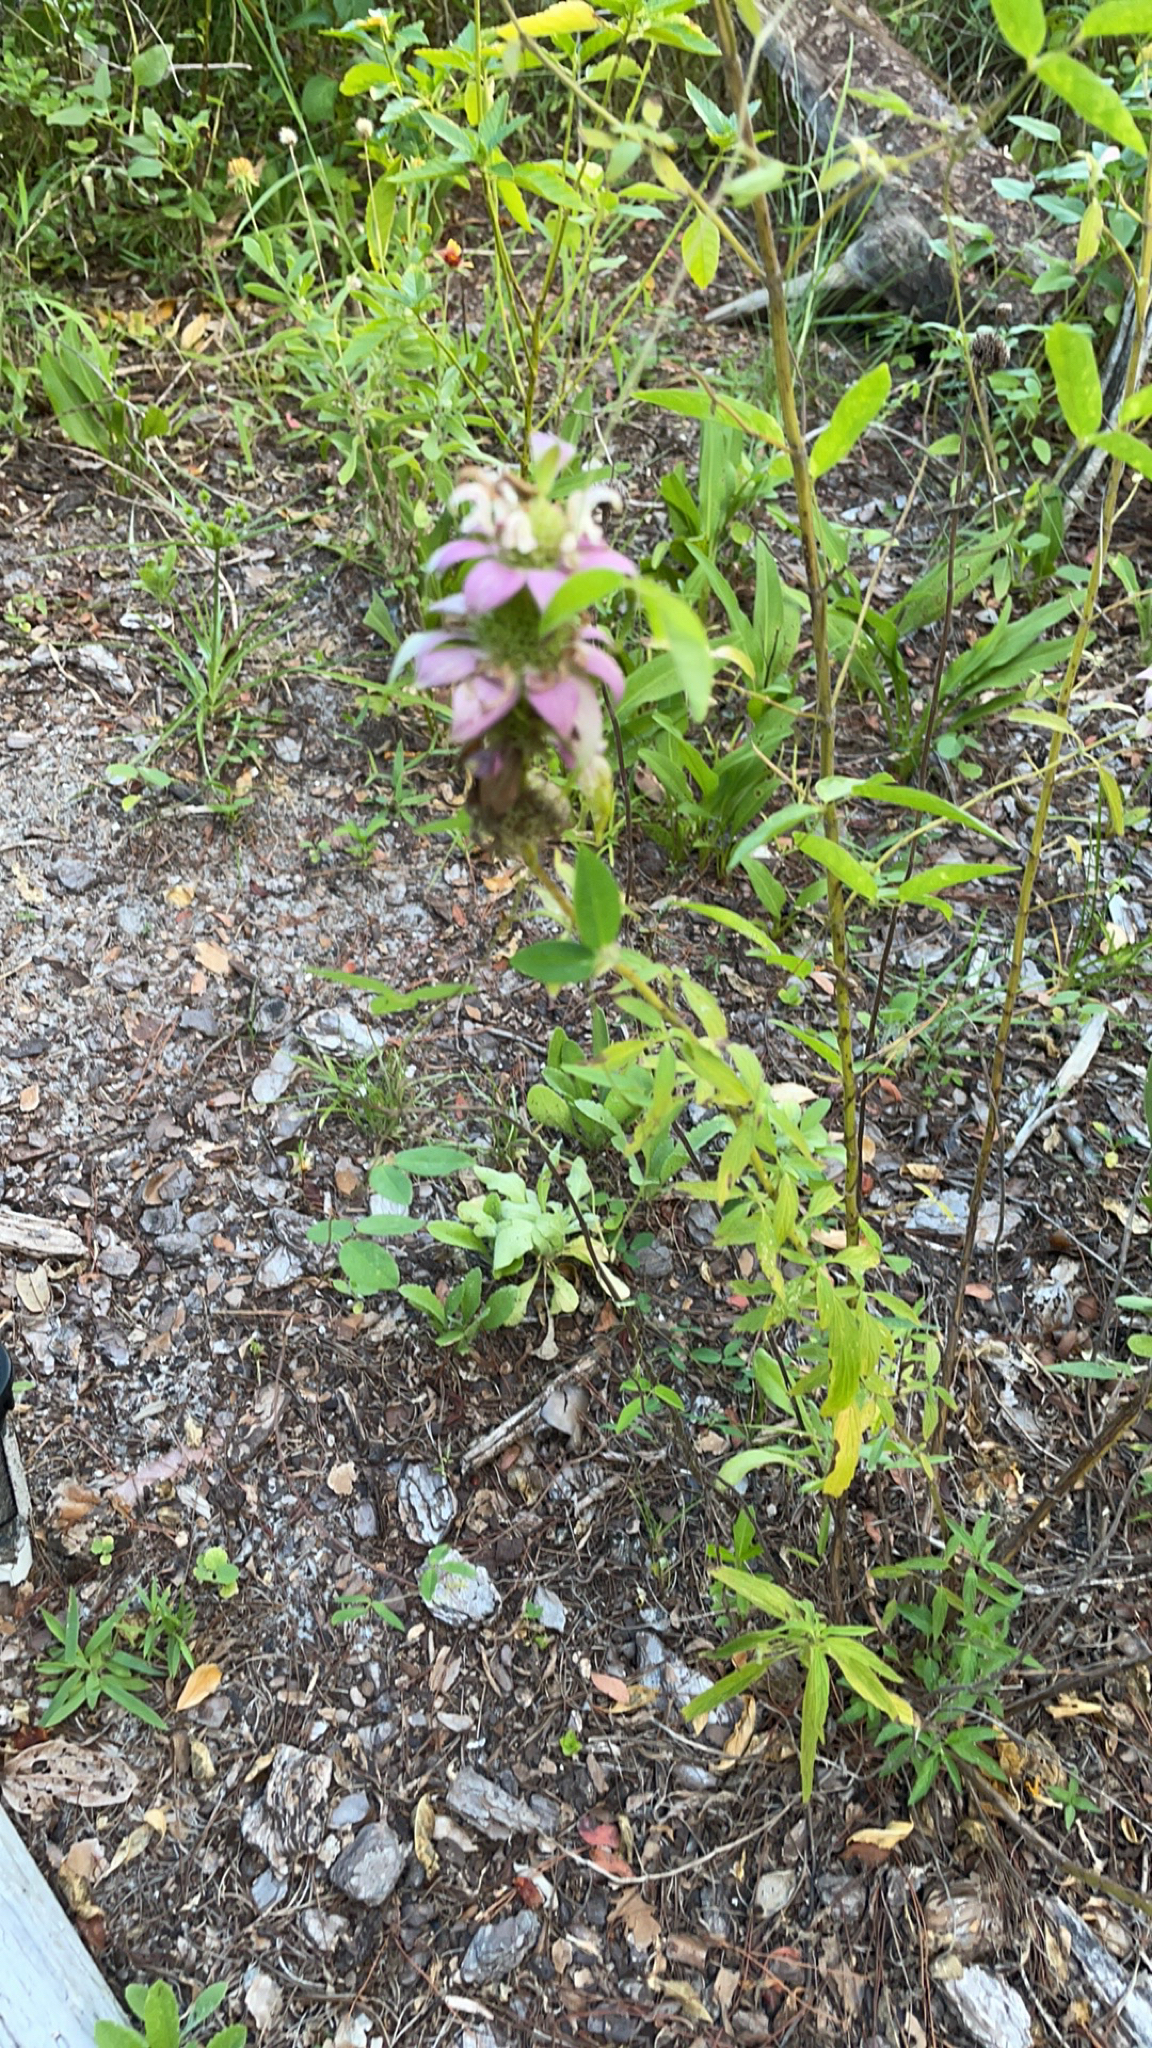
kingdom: Plantae
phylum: Tracheophyta
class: Magnoliopsida
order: Lamiales
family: Lamiaceae
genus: Monarda
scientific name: Monarda punctata
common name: Dotted monarda
